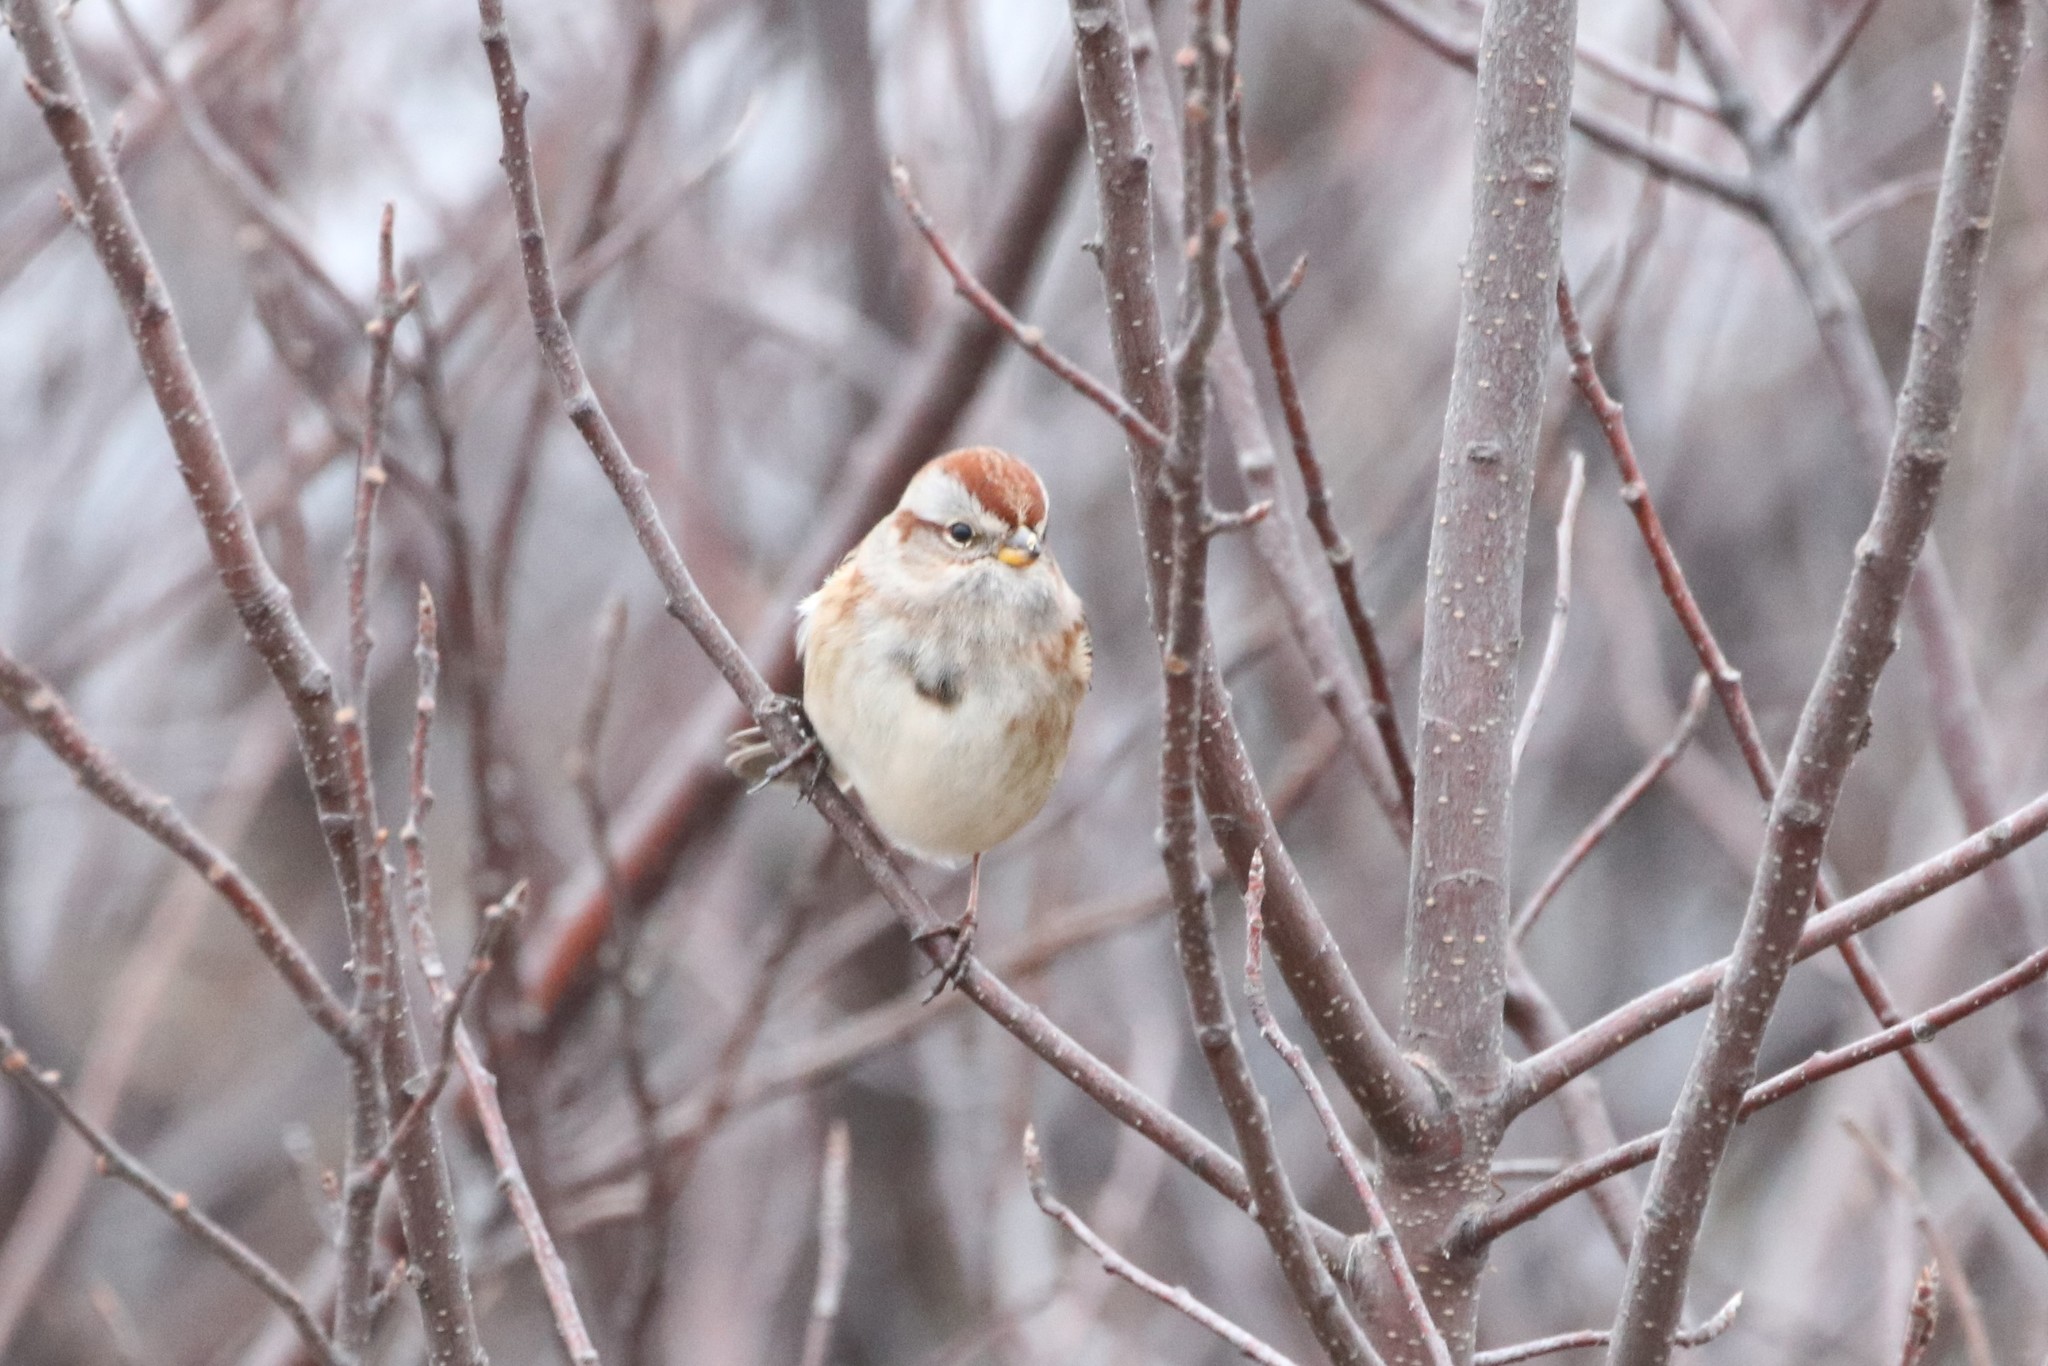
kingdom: Animalia
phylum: Chordata
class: Aves
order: Passeriformes
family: Passerellidae
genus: Spizelloides
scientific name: Spizelloides arborea
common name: American tree sparrow
